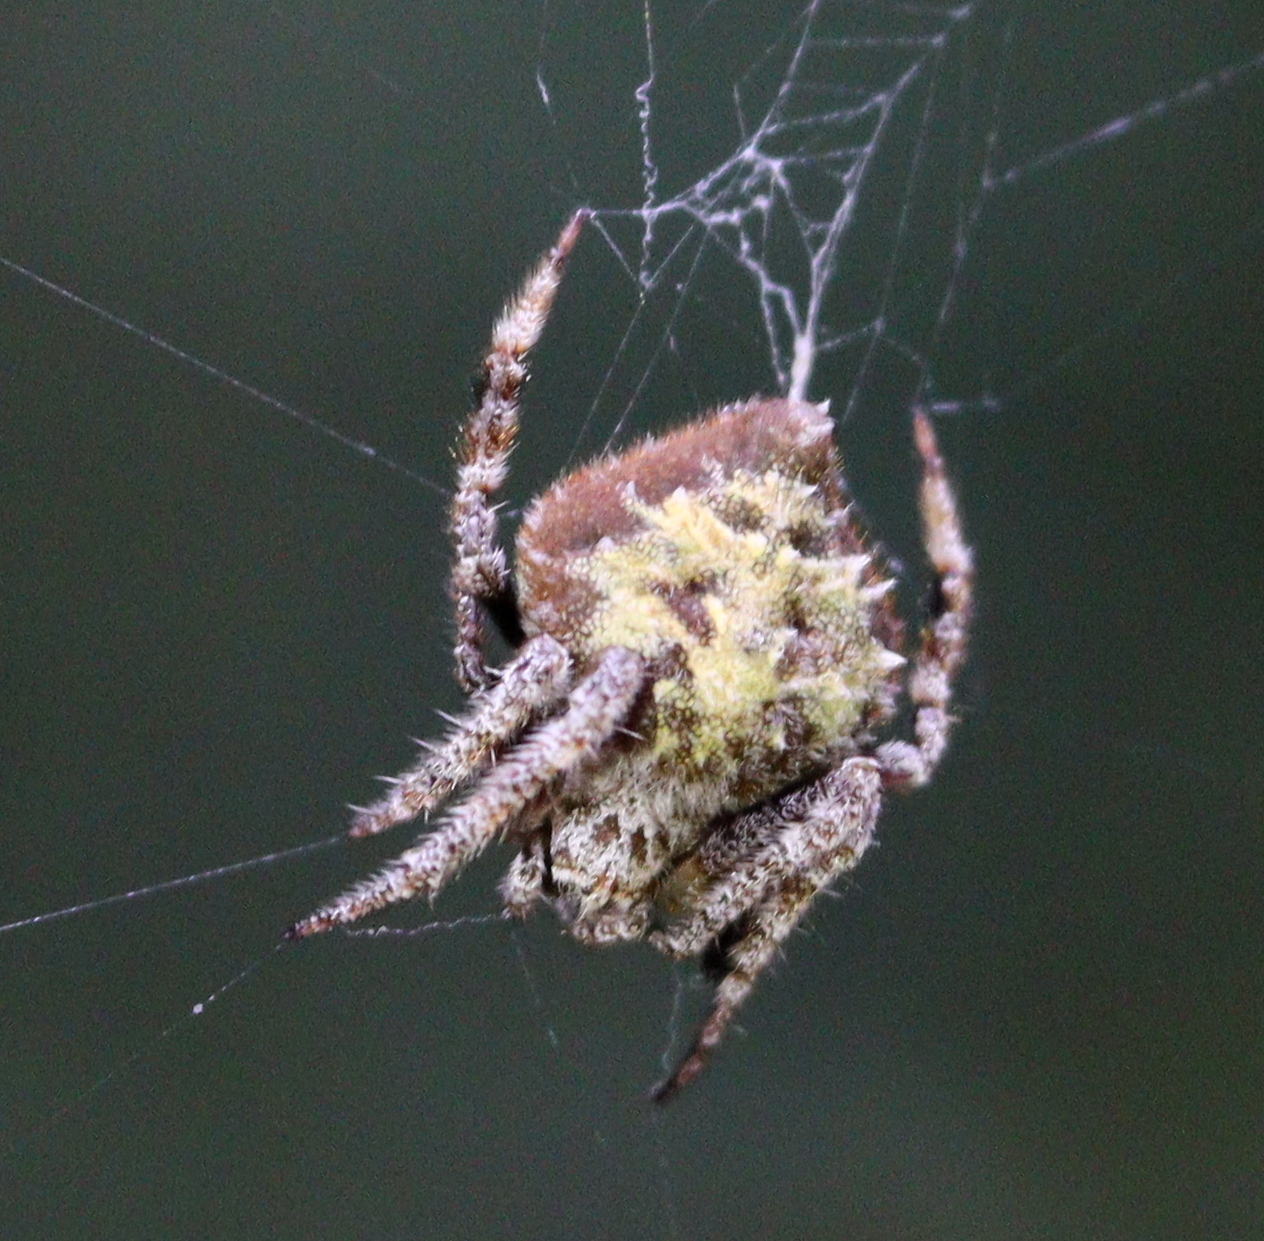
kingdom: Animalia
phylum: Arthropoda
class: Arachnida
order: Araneae
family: Araneidae
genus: Eriovixia
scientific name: Eriovixia laglaizei
